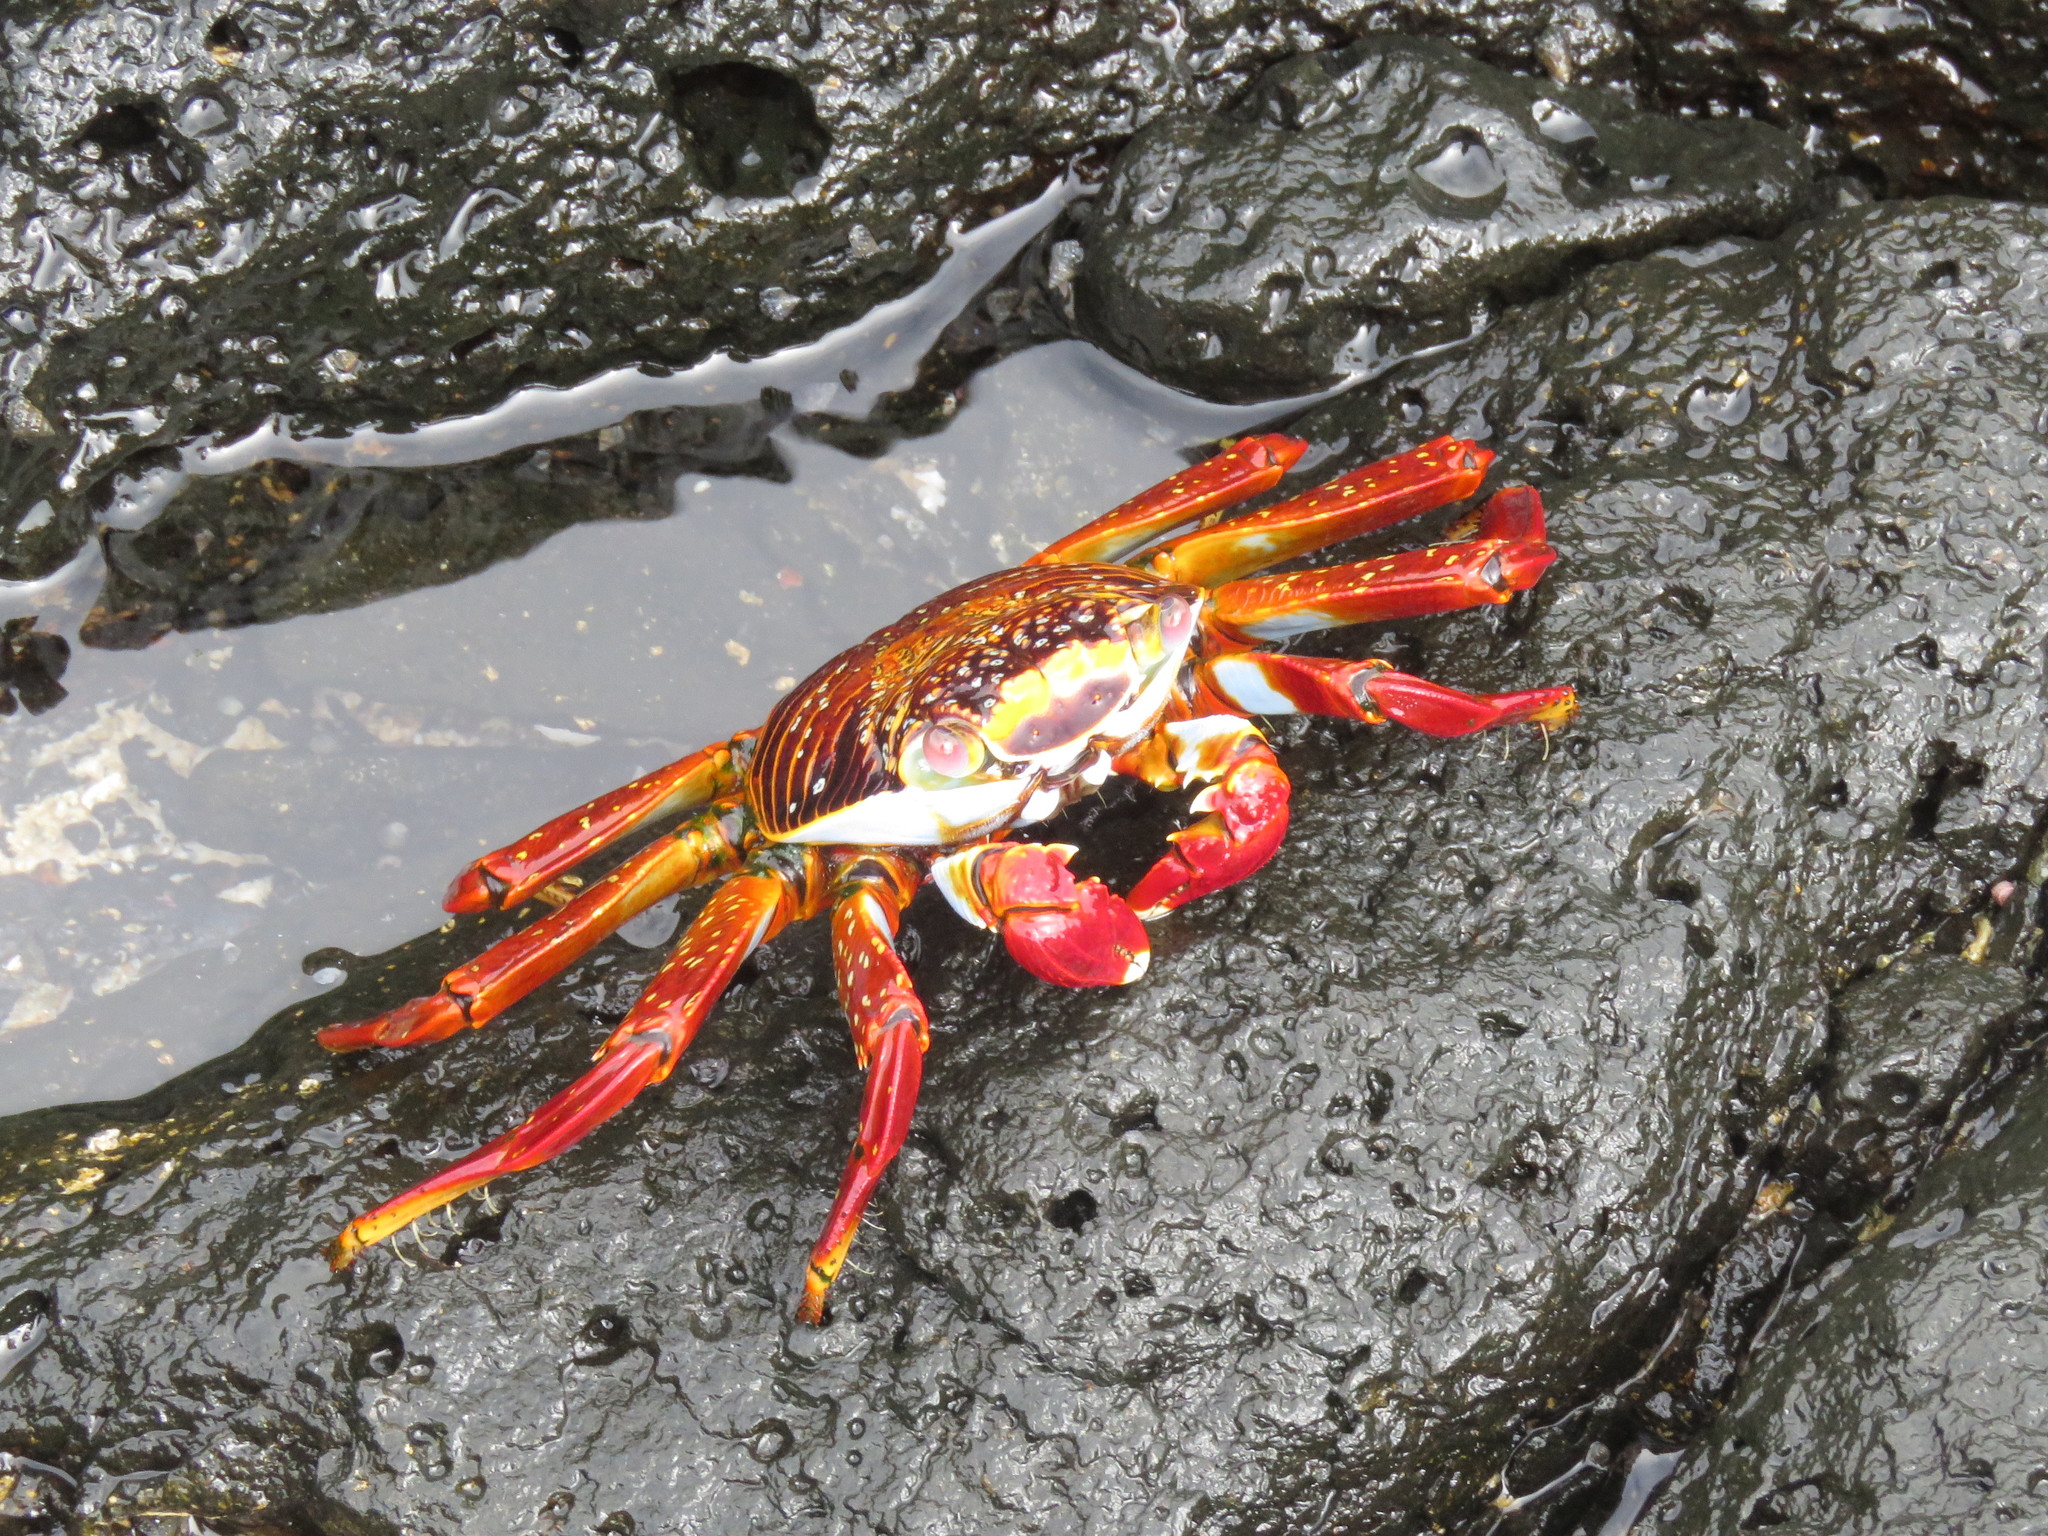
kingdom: Animalia
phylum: Arthropoda
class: Malacostraca
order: Decapoda
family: Grapsidae
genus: Grapsus
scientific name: Grapsus grapsus
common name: Sally lightfoot
